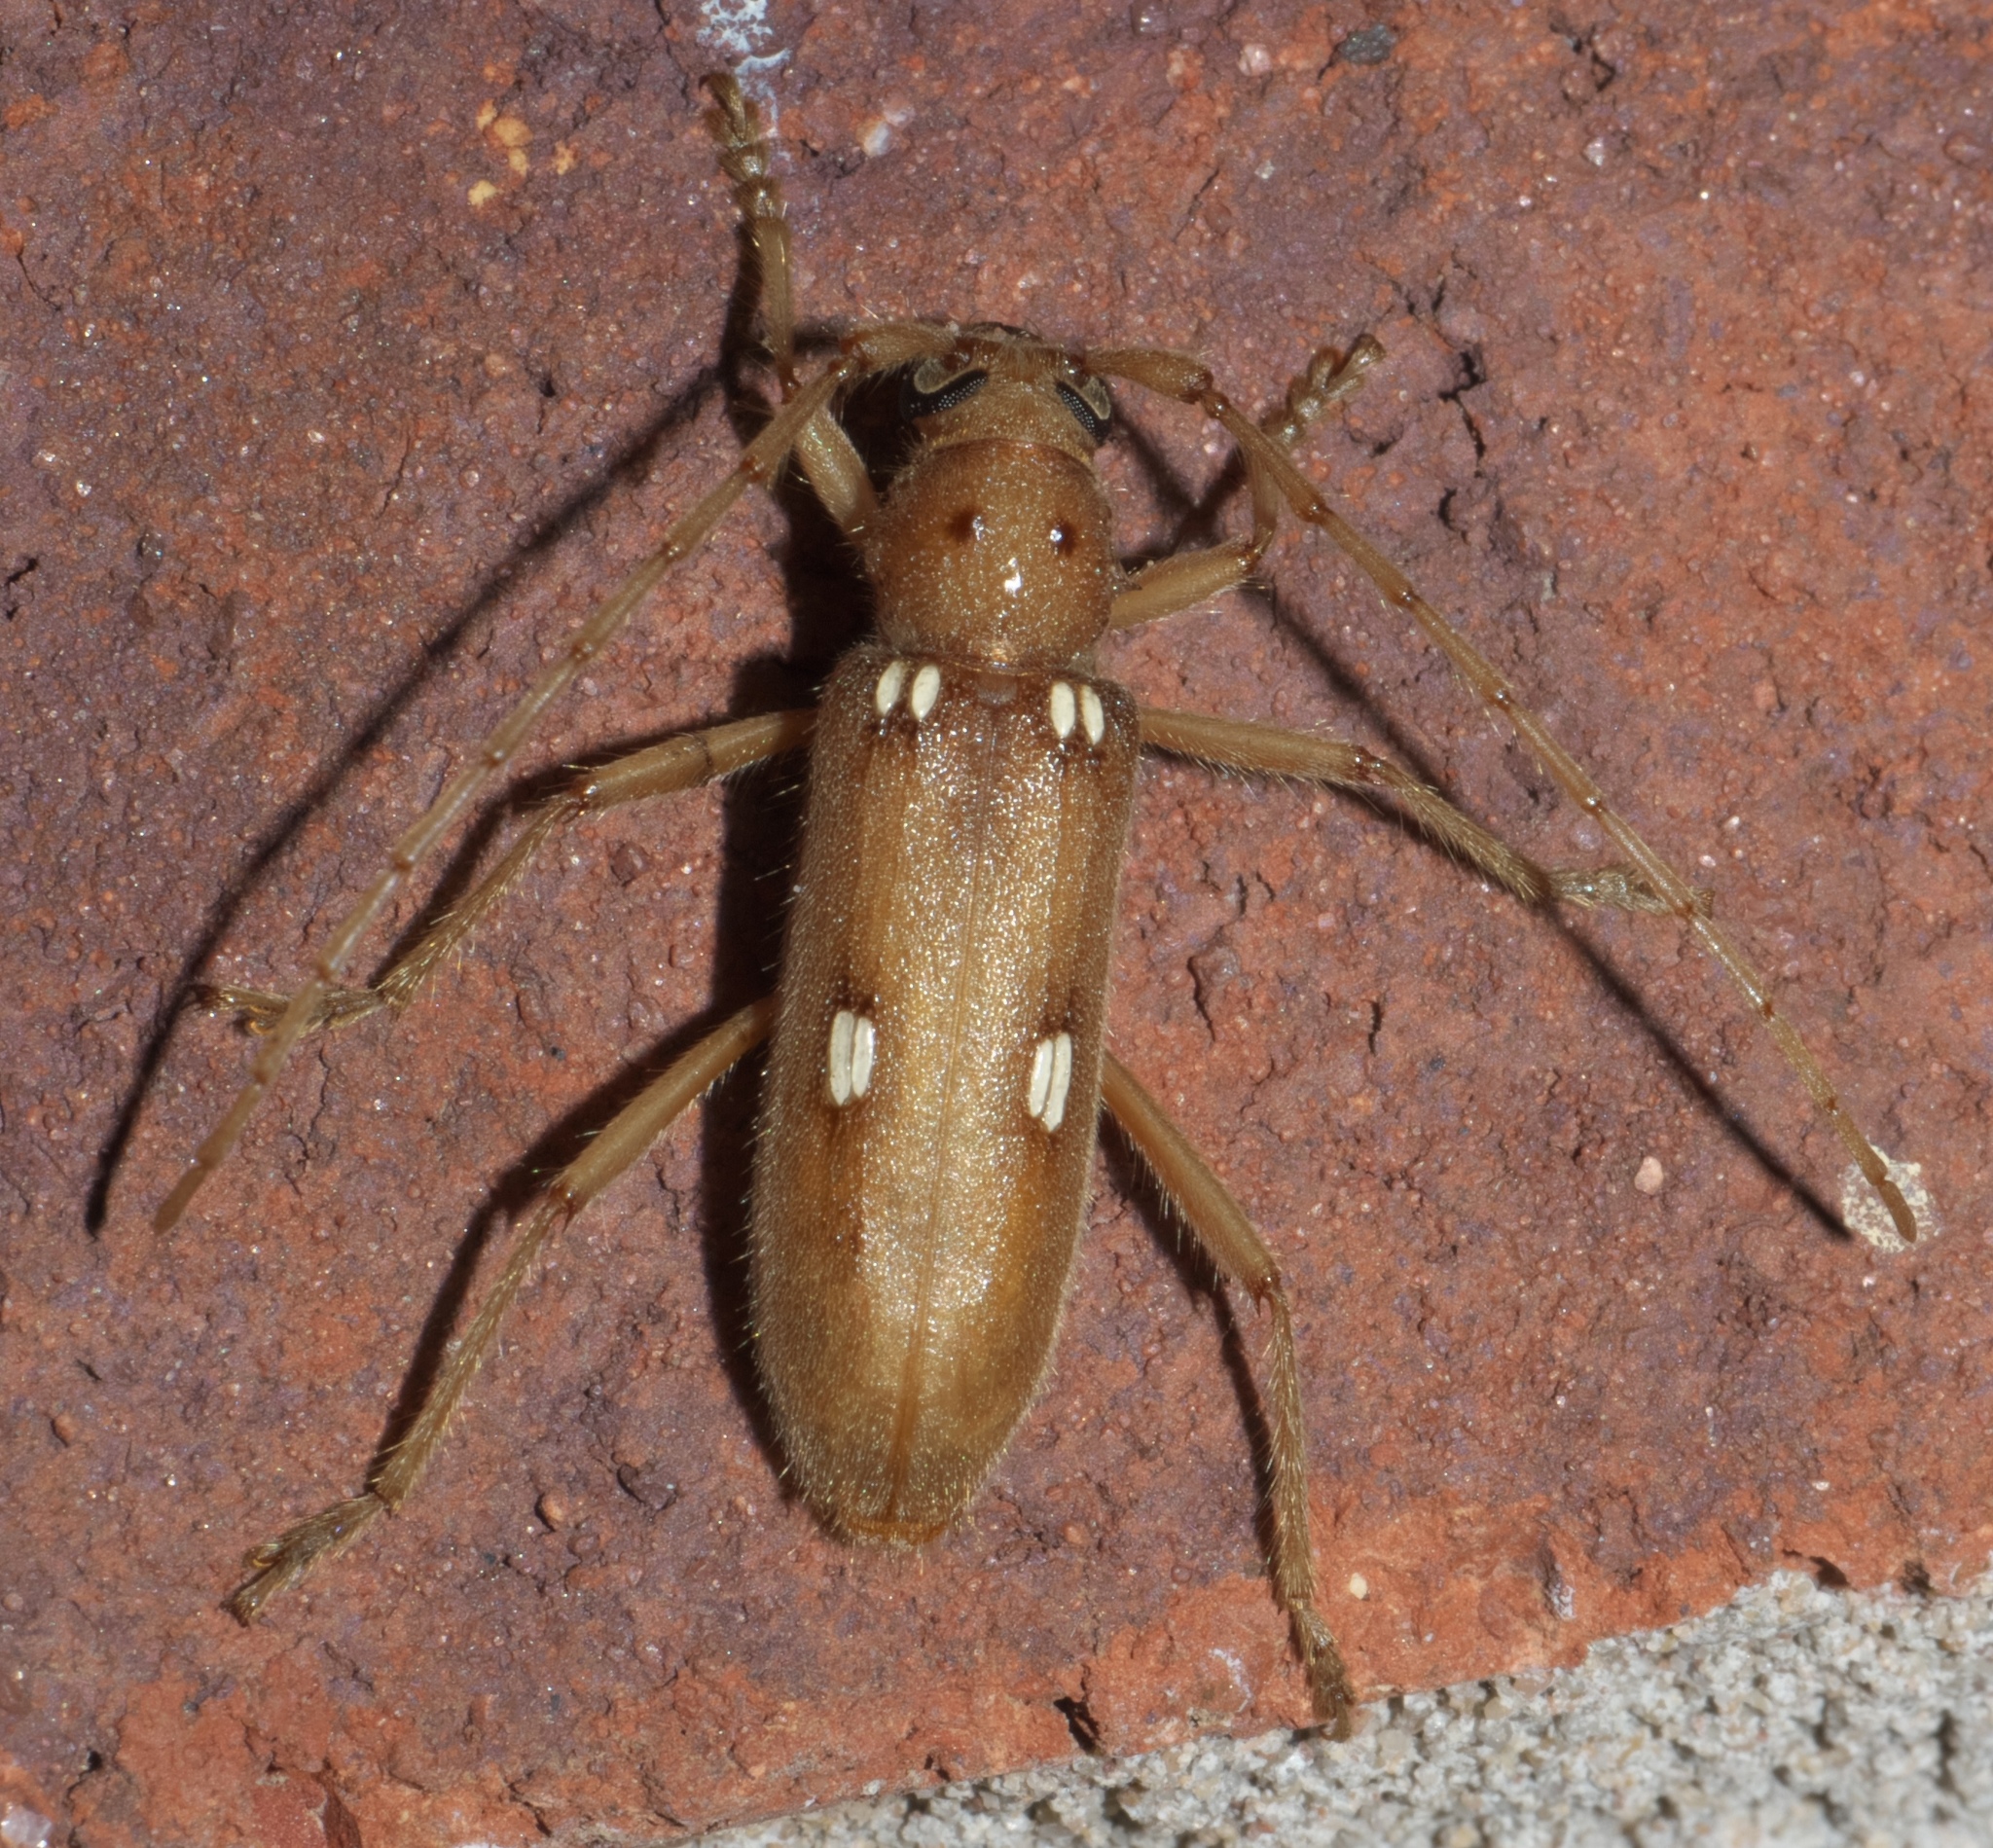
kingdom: Animalia
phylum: Arthropoda
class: Insecta
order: Coleoptera
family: Cerambycidae
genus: Eburia
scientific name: Eburia quadrigeminata
